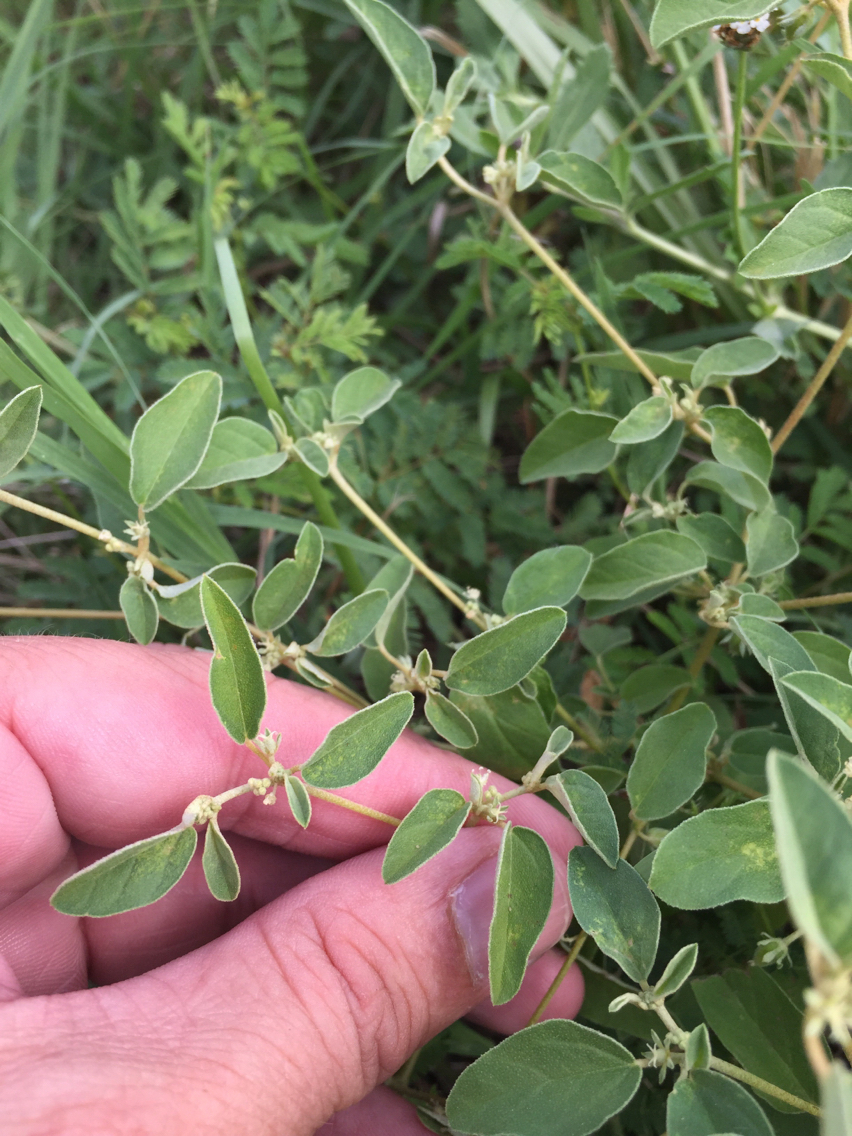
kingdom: Plantae
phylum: Tracheophyta
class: Magnoliopsida
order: Malpighiales
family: Euphorbiaceae
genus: Croton
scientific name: Croton monanthogynus
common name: One-seed croton
